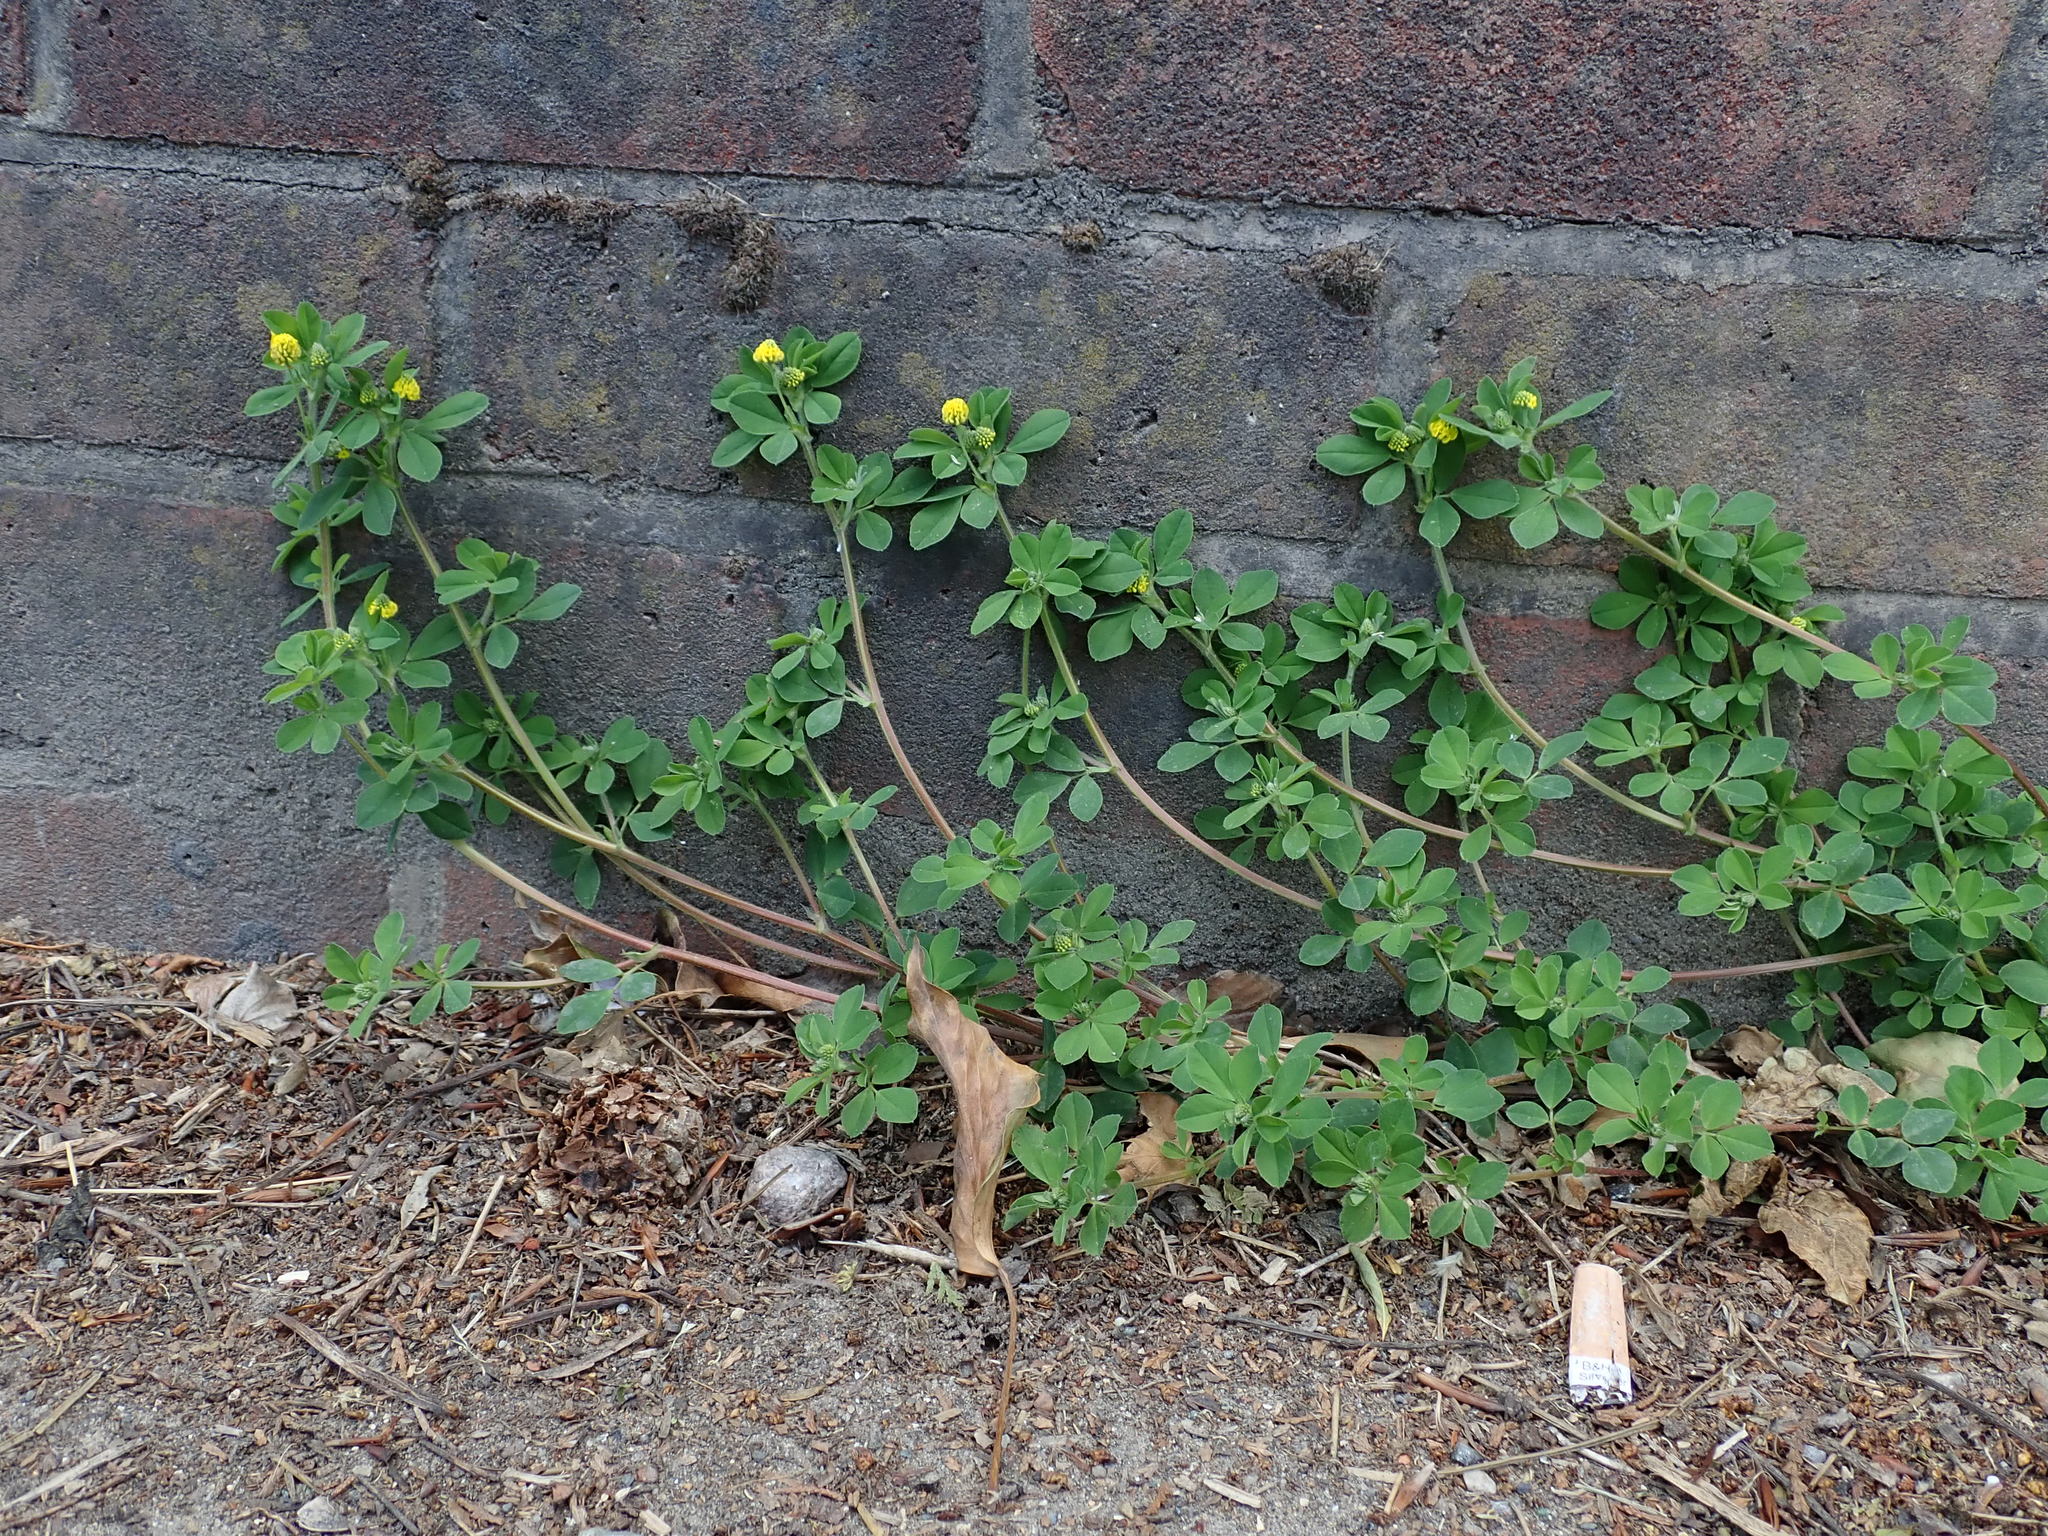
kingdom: Plantae
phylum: Tracheophyta
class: Magnoliopsida
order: Fabales
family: Fabaceae
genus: Medicago
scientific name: Medicago lupulina
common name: Black medick
